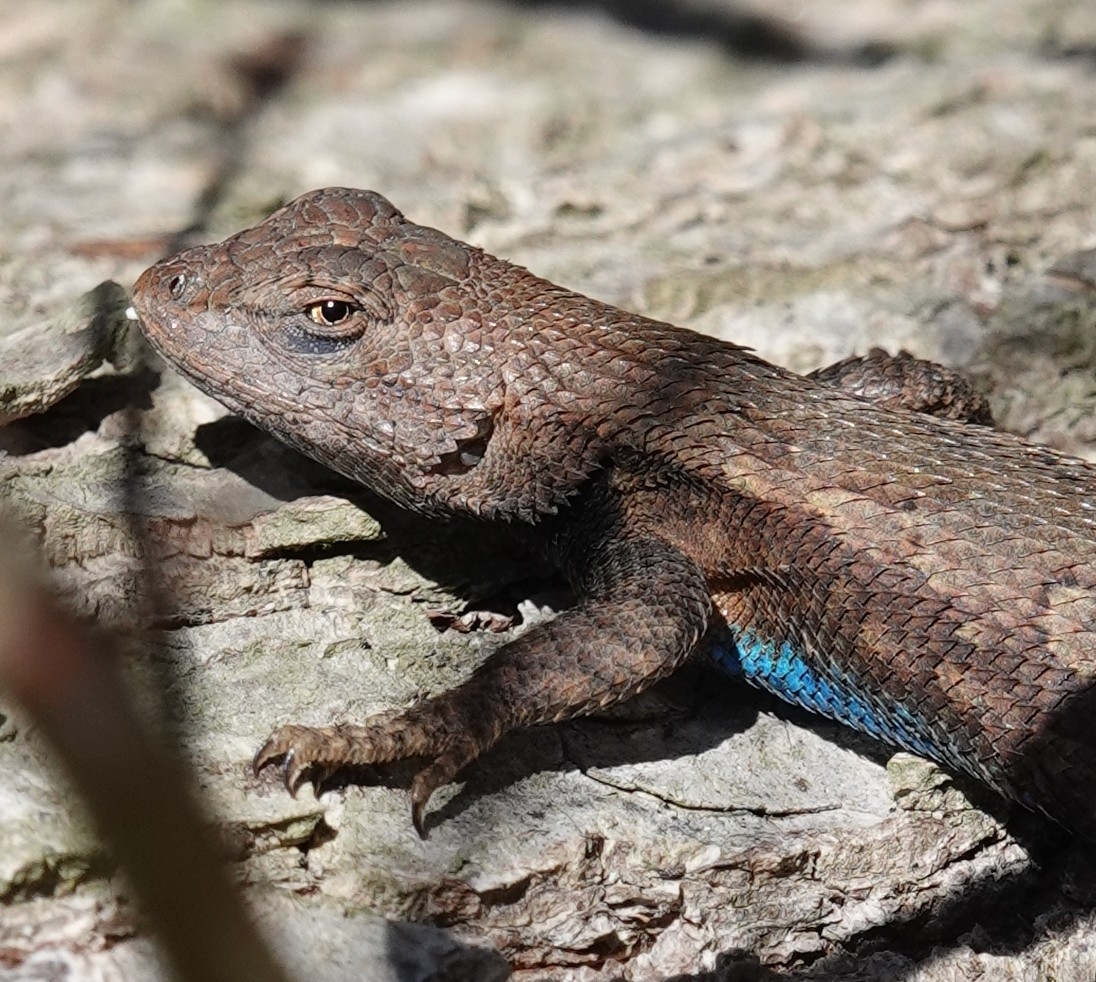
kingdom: Animalia
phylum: Chordata
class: Squamata
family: Phrynosomatidae
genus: Sceloporus
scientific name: Sceloporus consobrinus
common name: Southern prairie lizard
